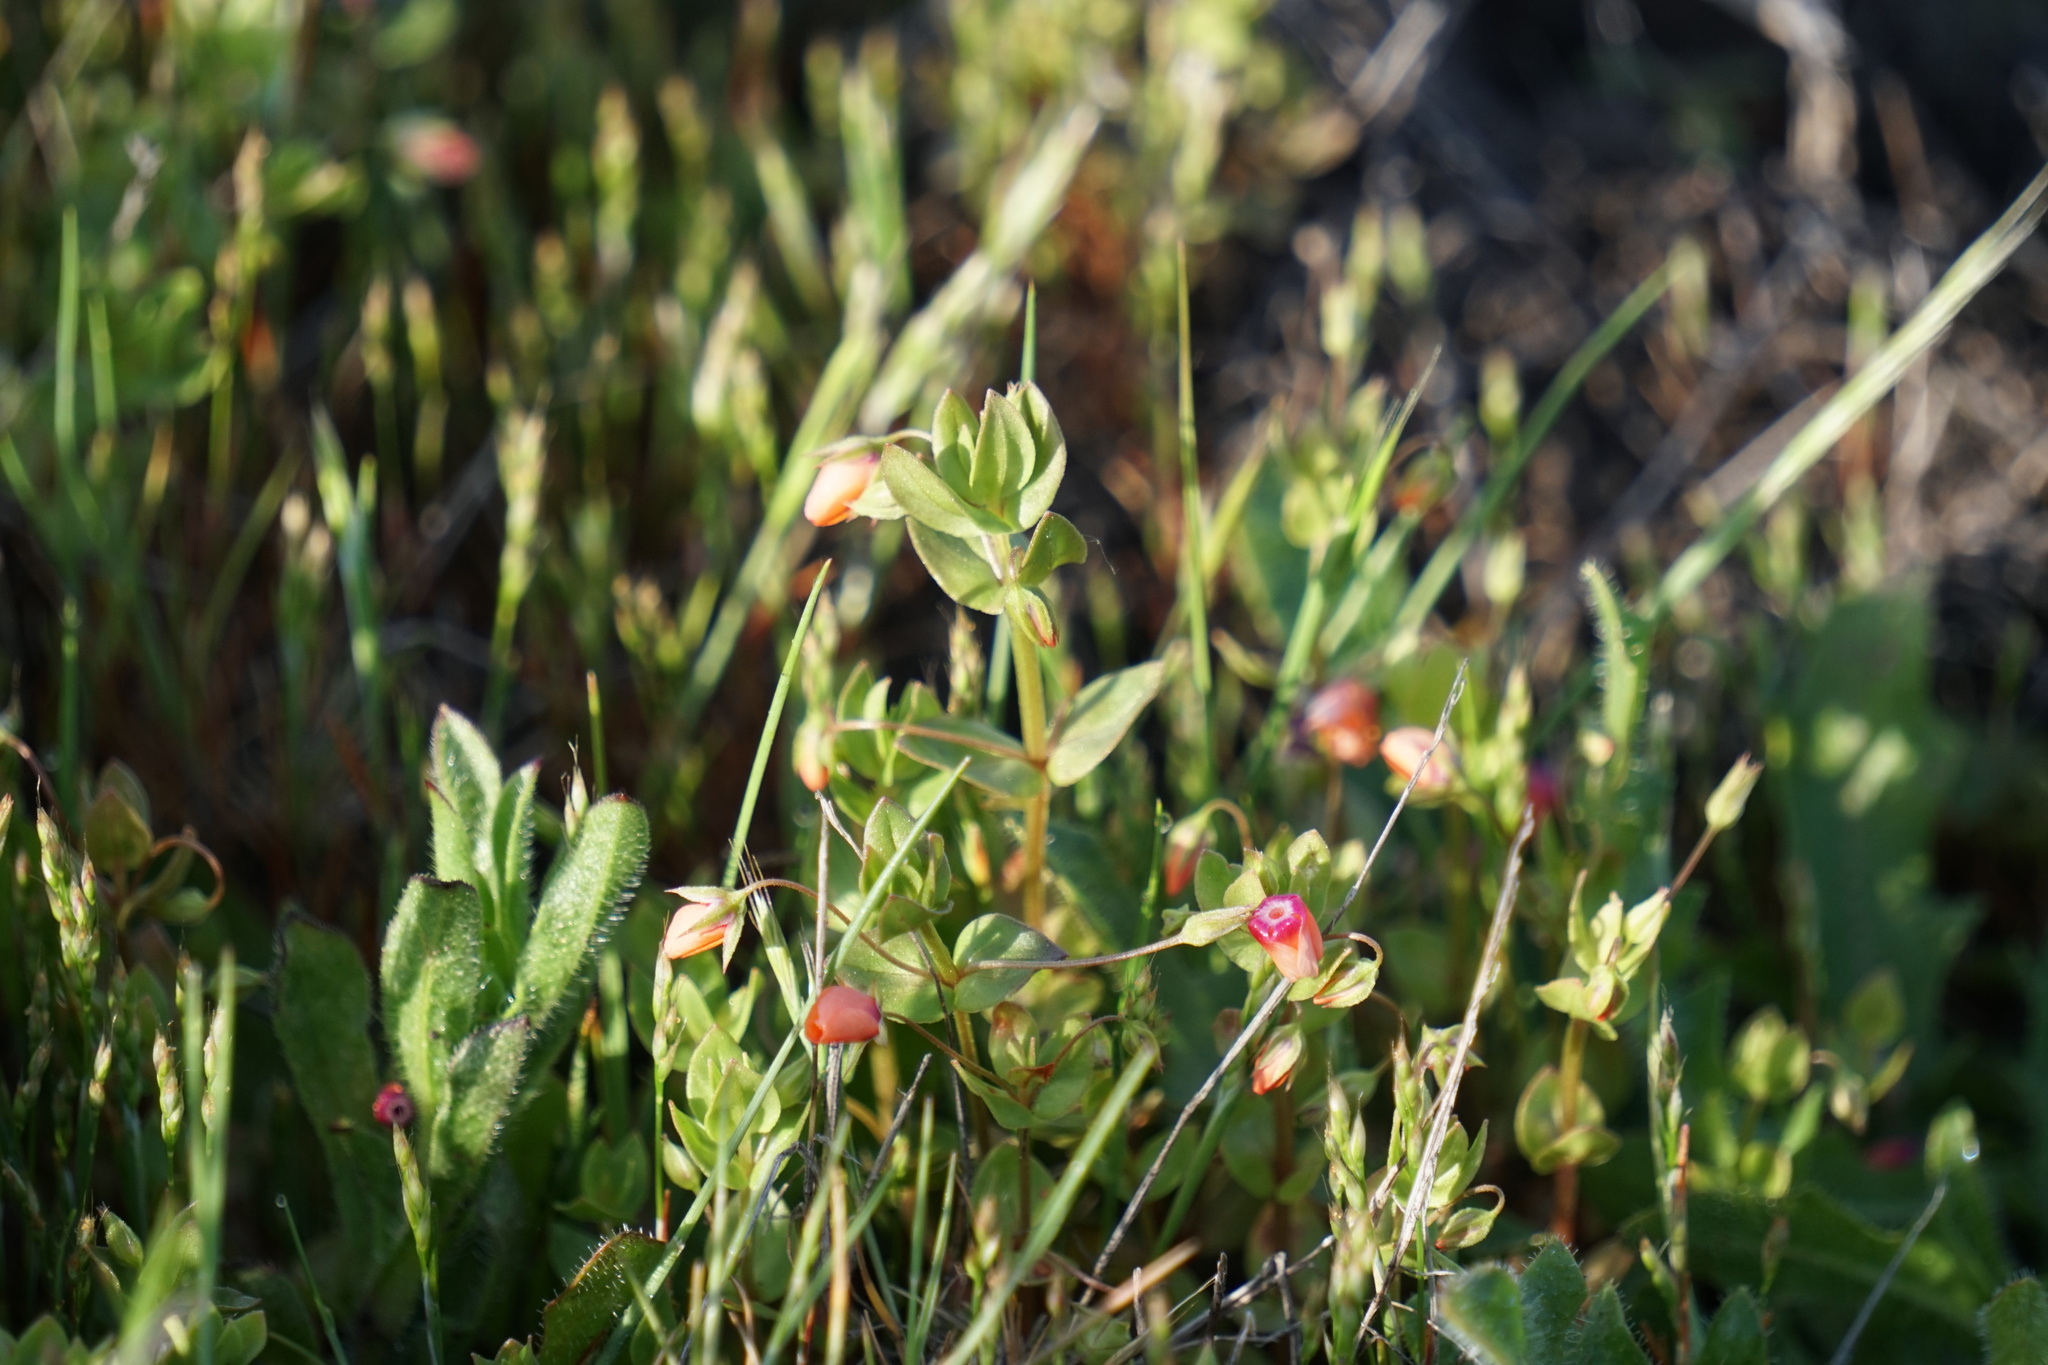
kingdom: Plantae
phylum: Tracheophyta
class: Magnoliopsida
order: Ericales
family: Primulaceae
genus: Lysimachia
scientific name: Lysimachia arvensis
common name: Scarlet pimpernel
